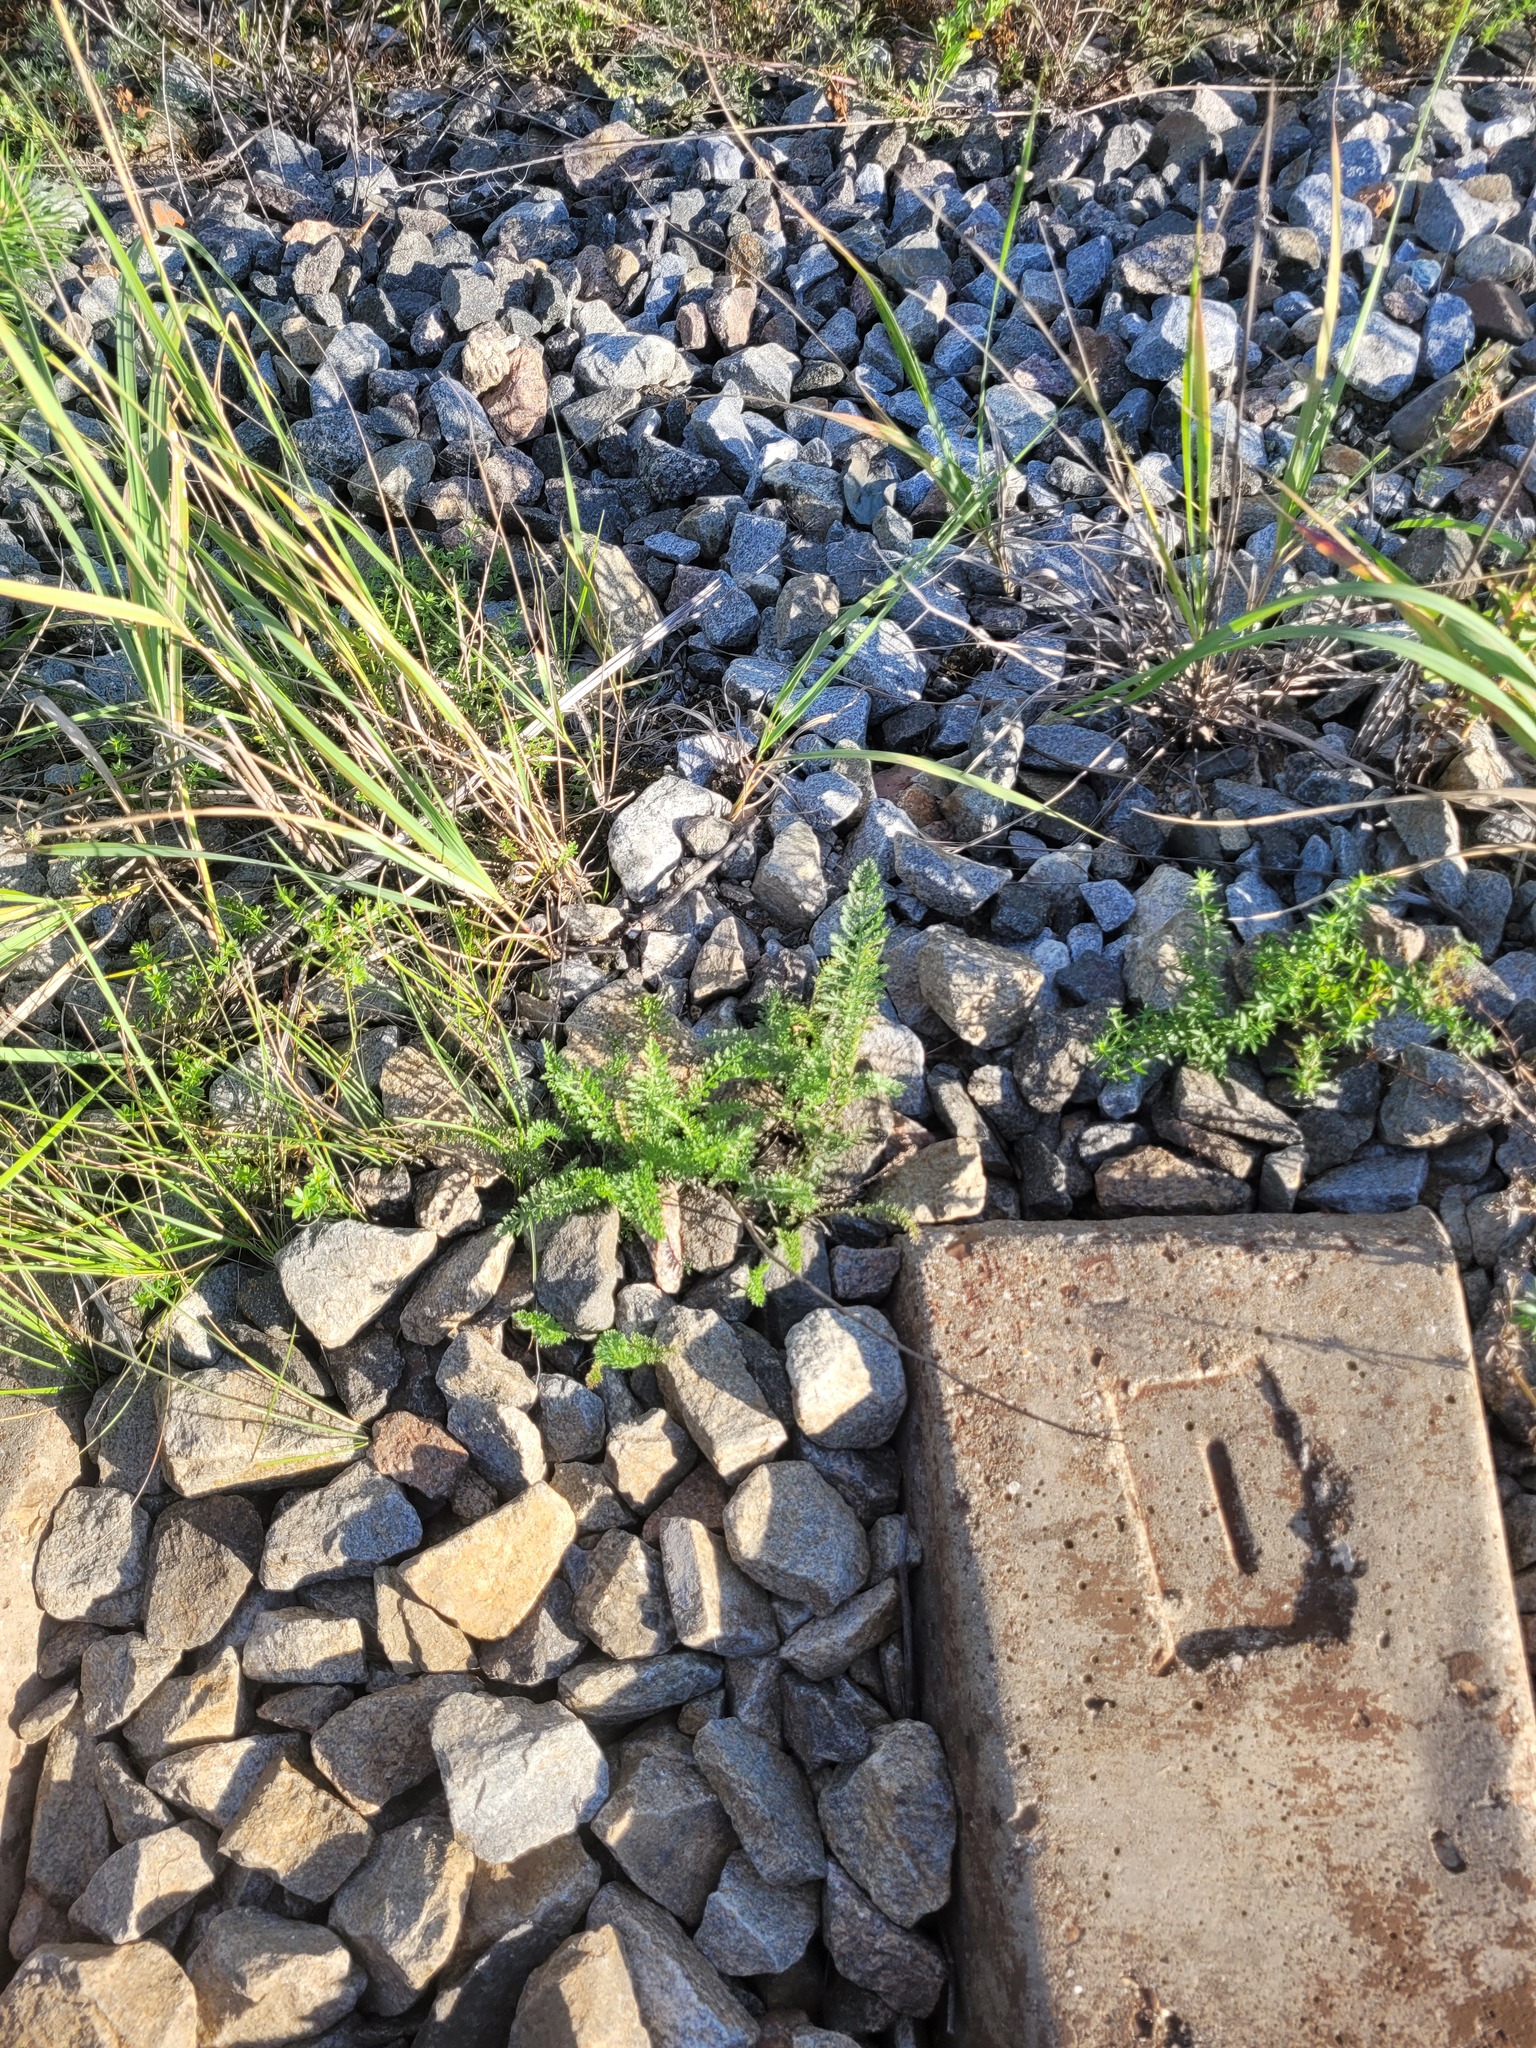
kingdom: Plantae
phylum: Tracheophyta
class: Magnoliopsida
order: Asterales
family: Asteraceae
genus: Achillea
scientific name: Achillea millefolium
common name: Yarrow
